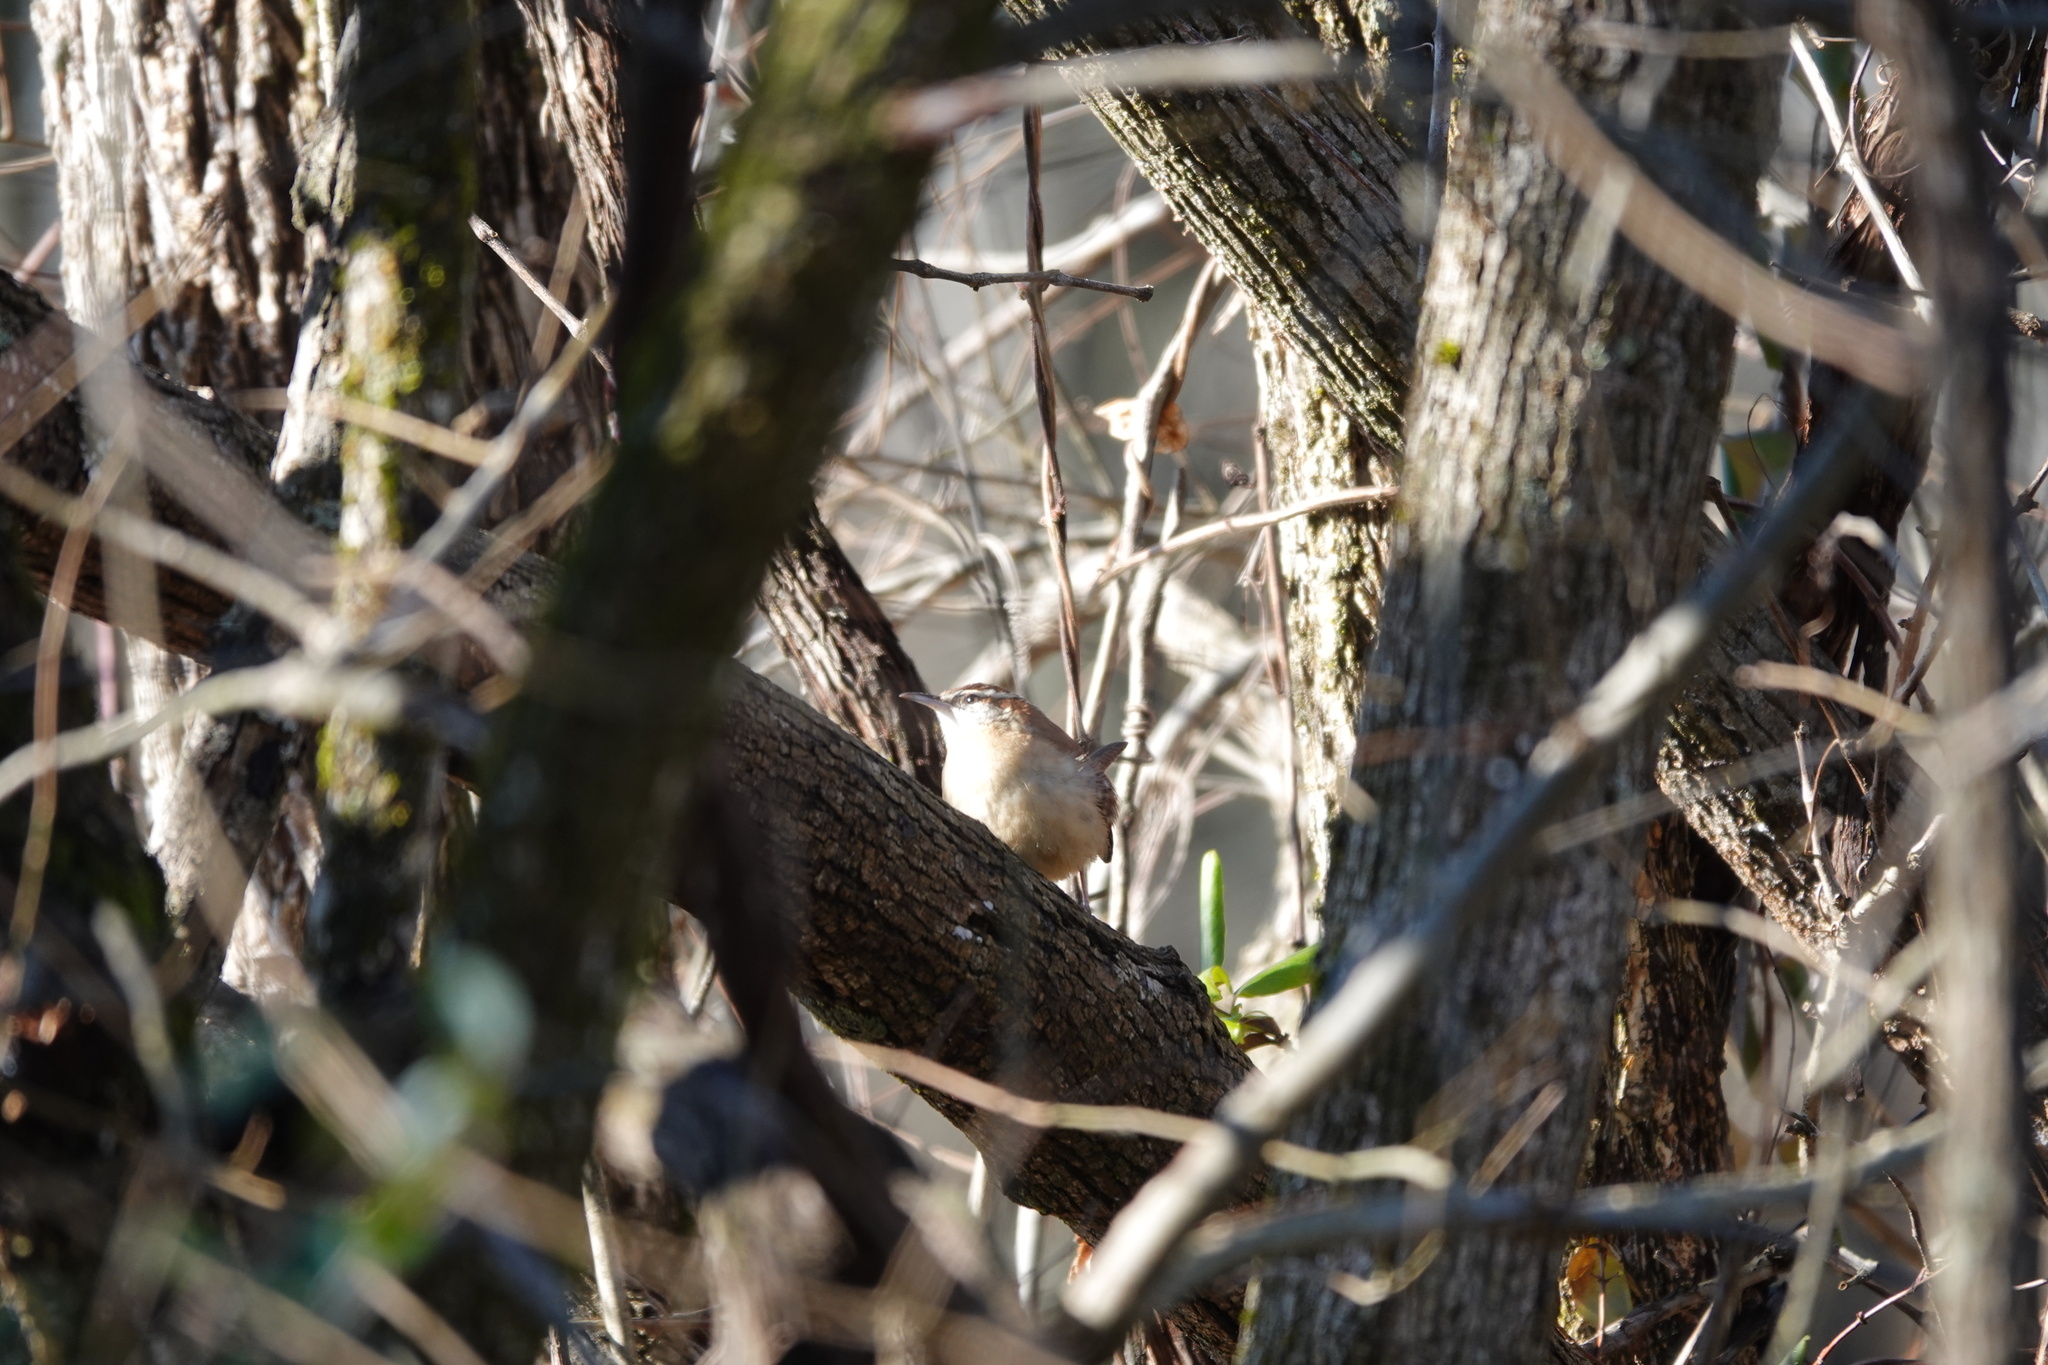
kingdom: Animalia
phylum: Chordata
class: Aves
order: Passeriformes
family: Troglodytidae
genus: Thryothorus
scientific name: Thryothorus ludovicianus
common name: Carolina wren
